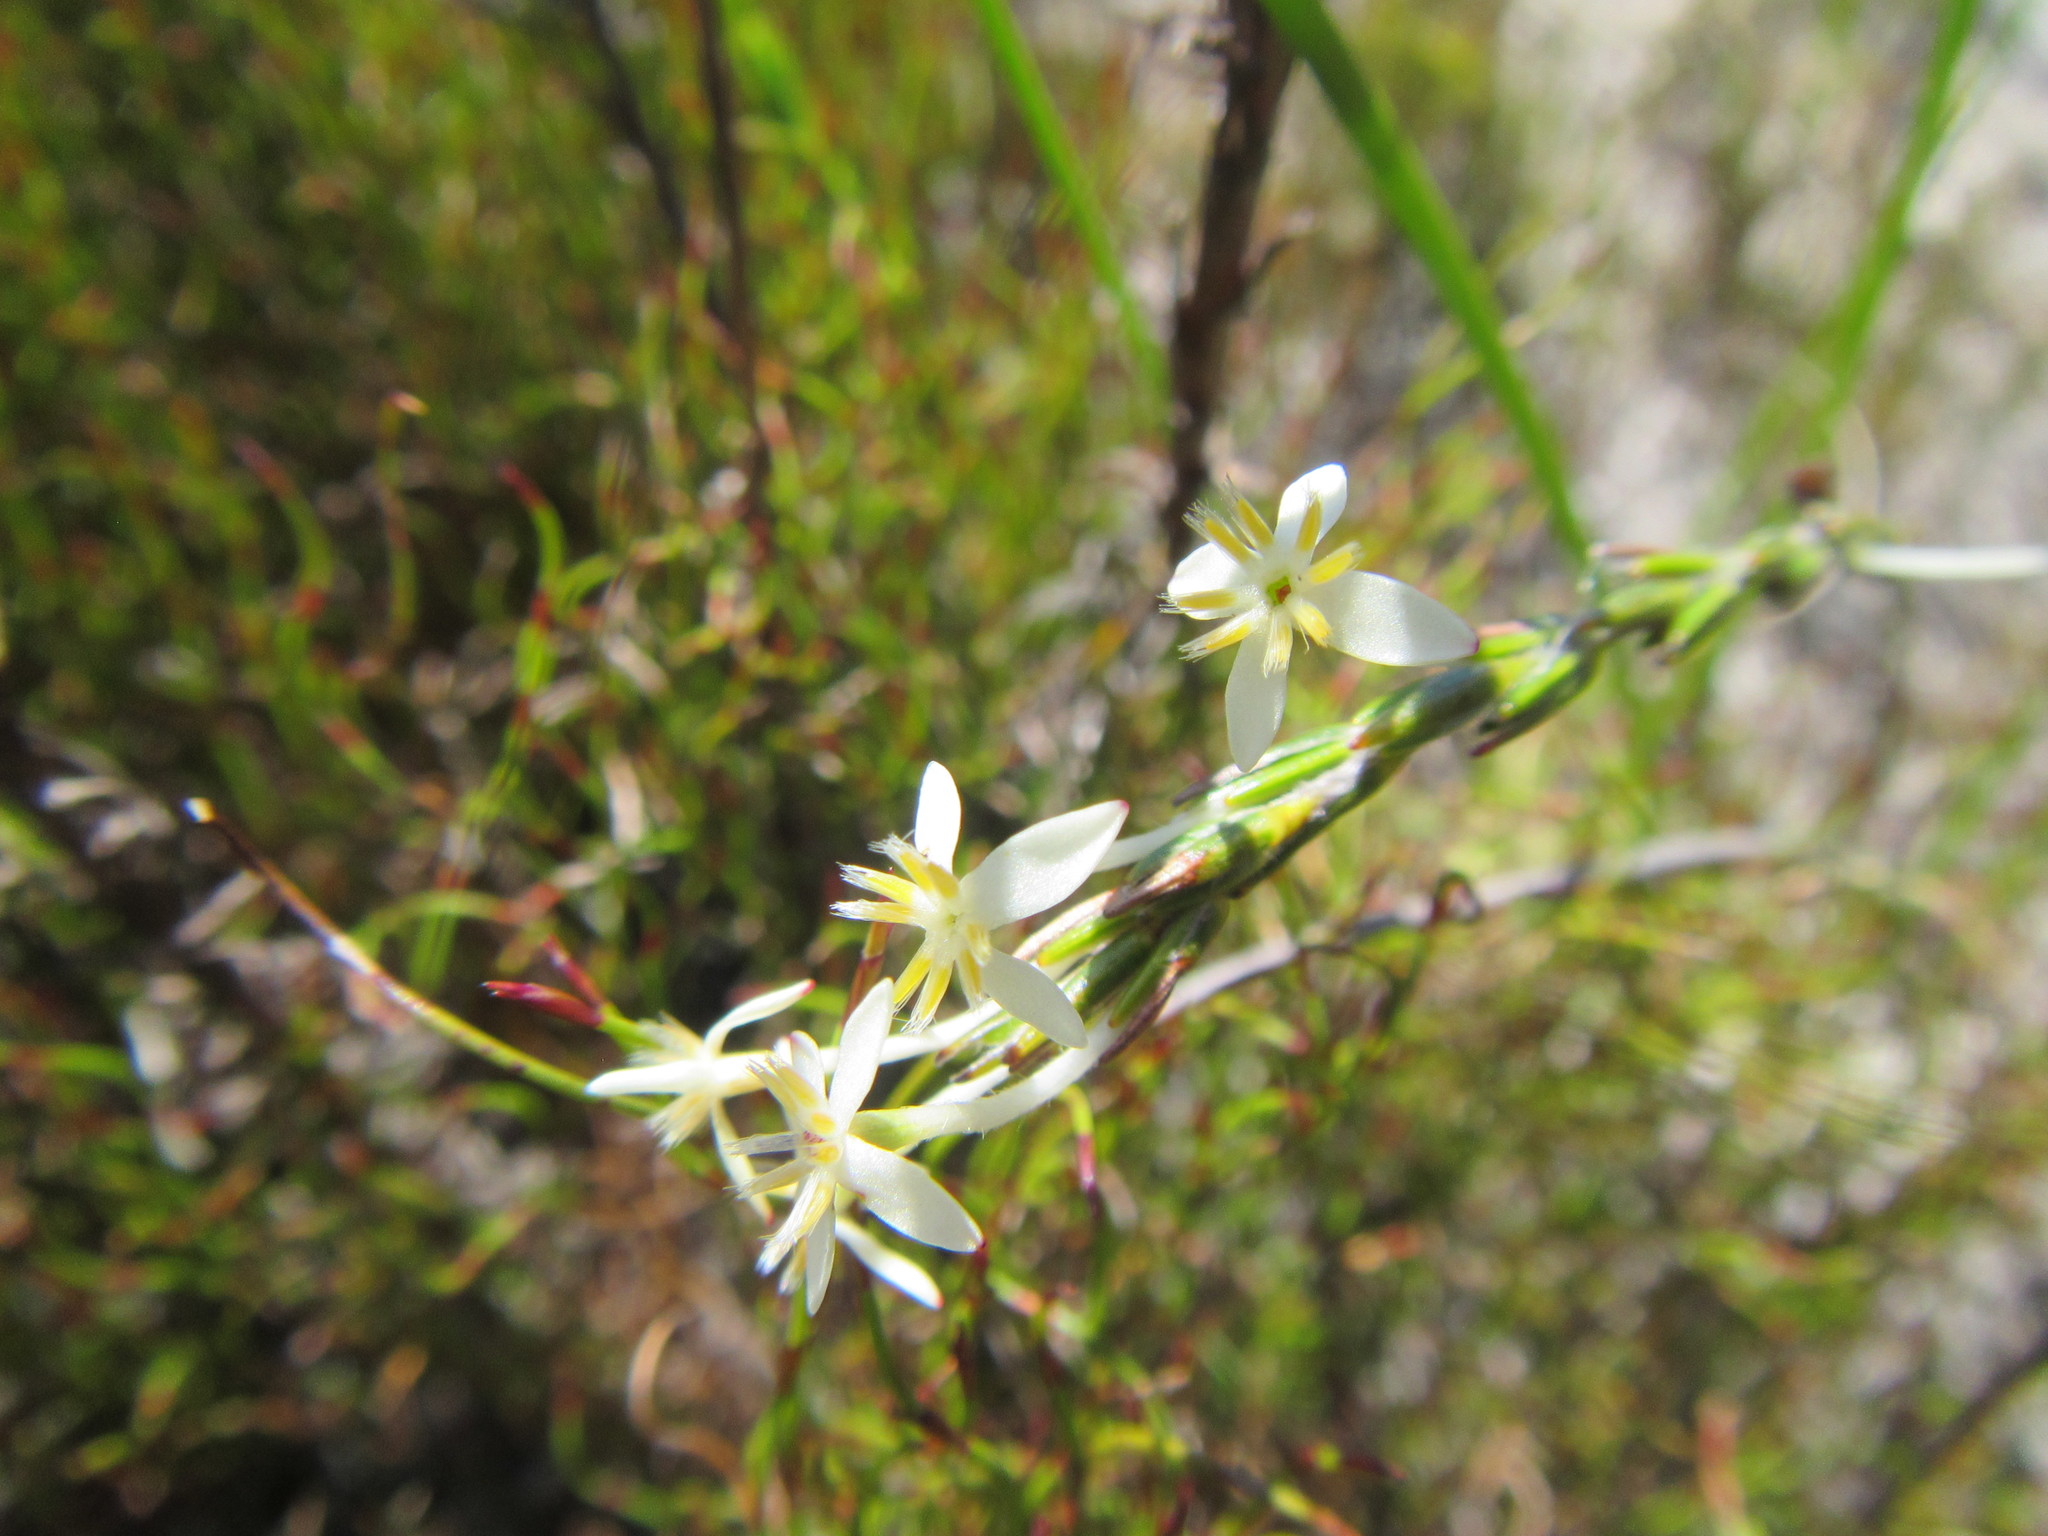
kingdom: Plantae
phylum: Tracheophyta
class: Magnoliopsida
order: Malvales
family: Thymelaeaceae
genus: Struthiola
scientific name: Struthiola ciliata
